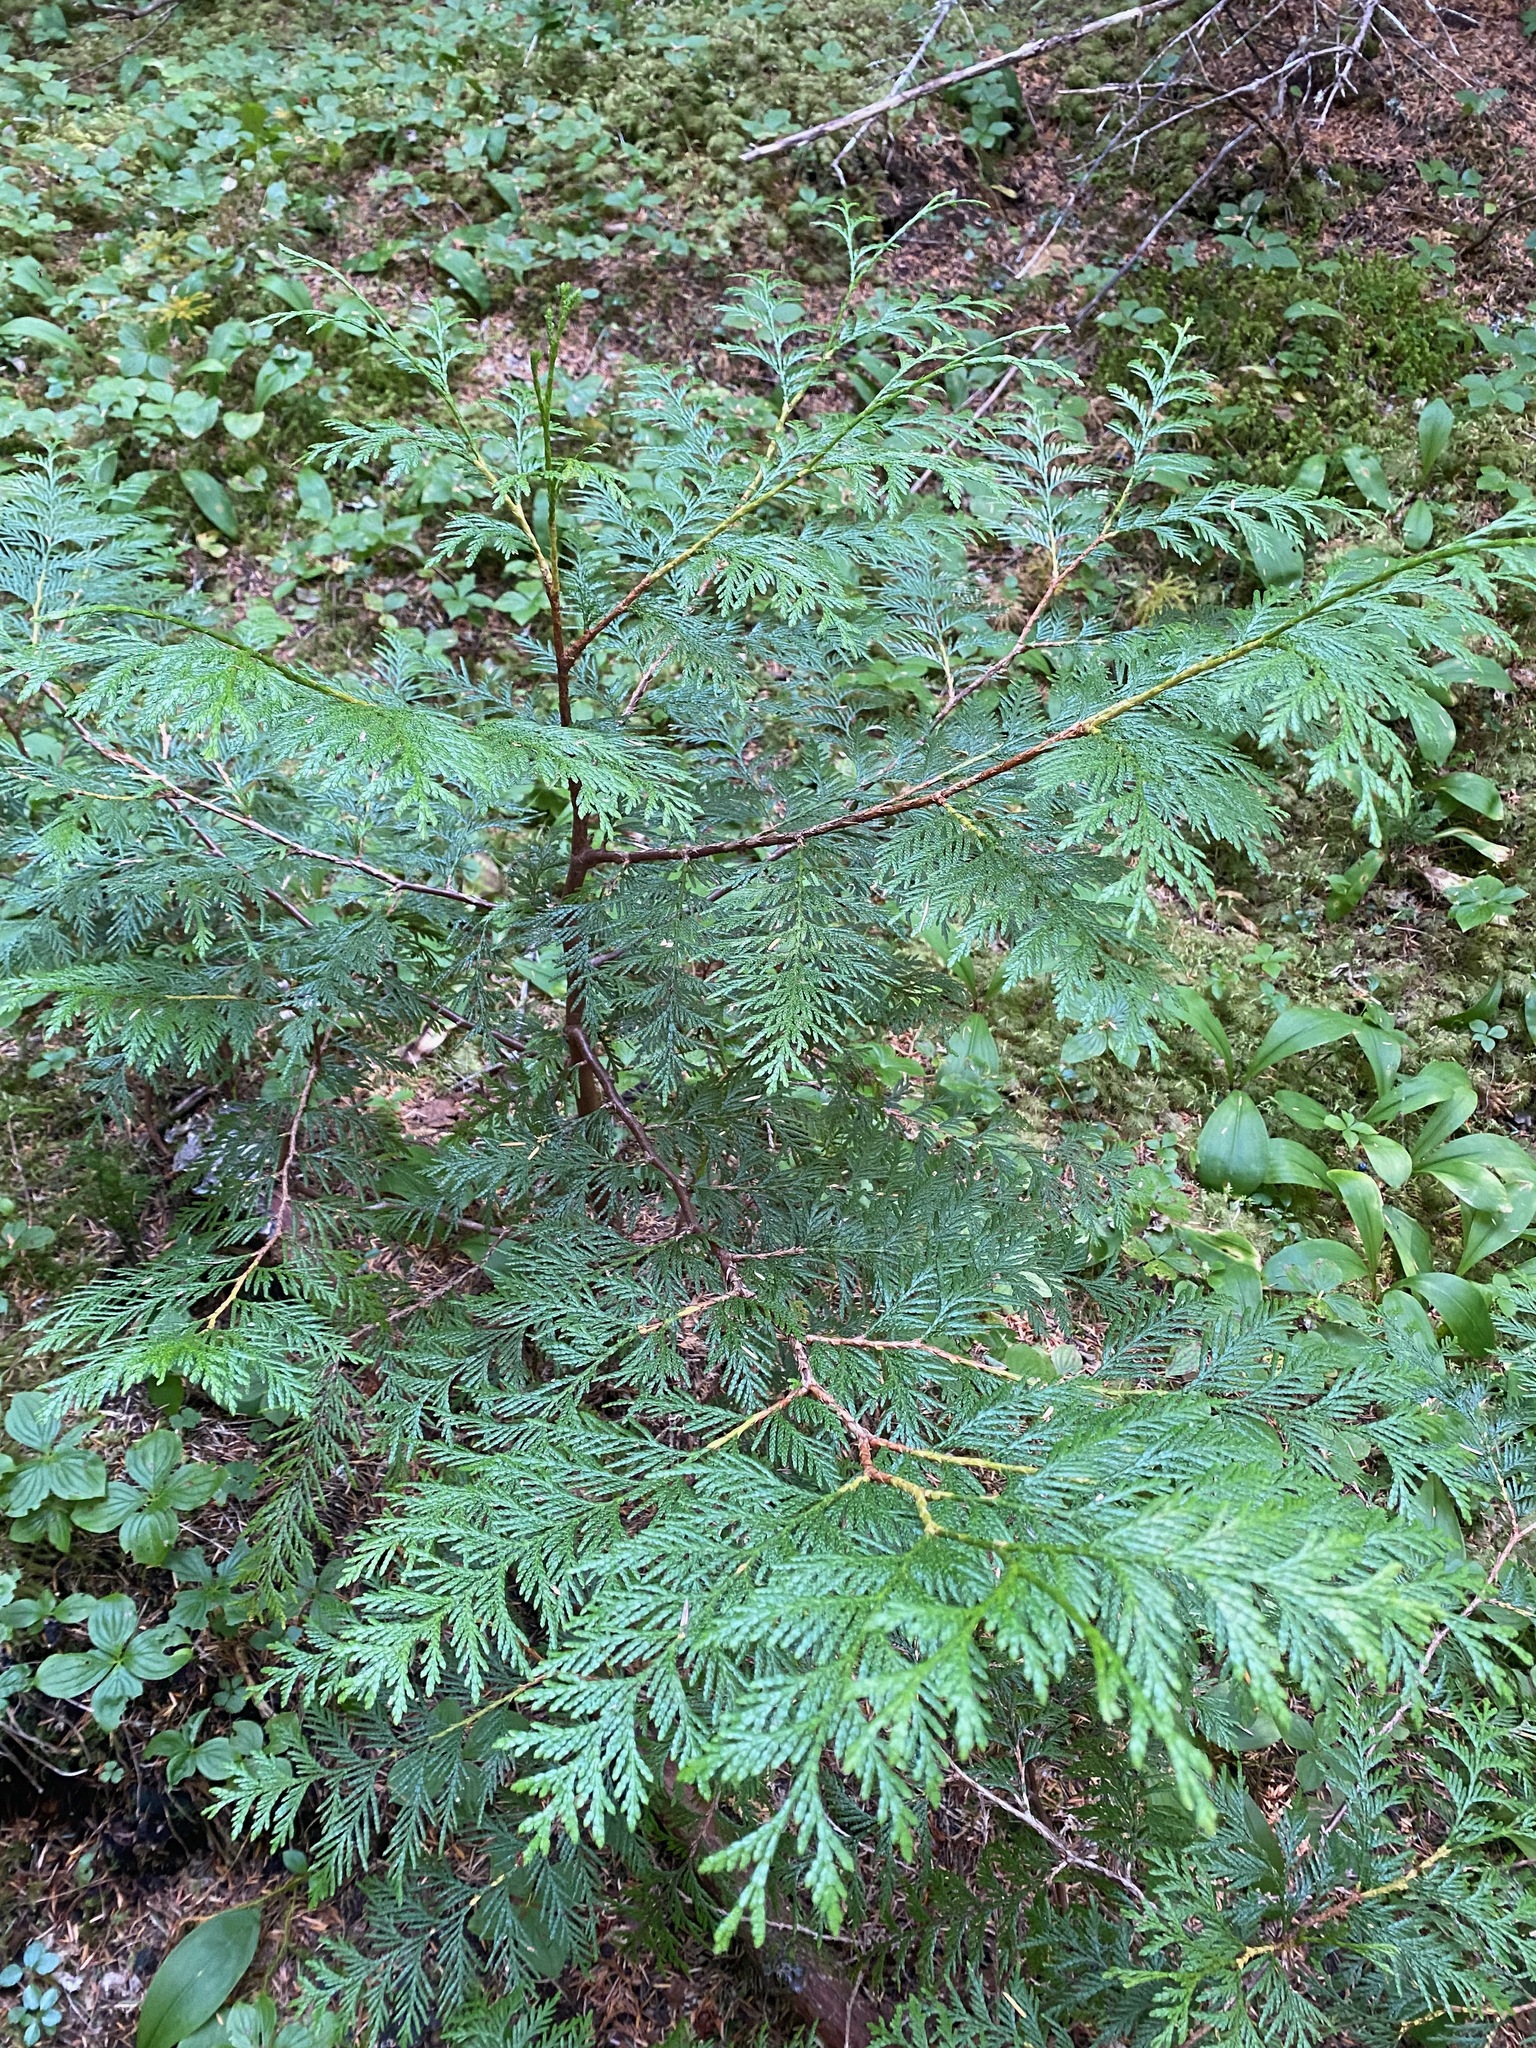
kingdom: Plantae
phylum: Tracheophyta
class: Pinopsida
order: Pinales
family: Cupressaceae
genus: Thuja
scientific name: Thuja plicata
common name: Western red-cedar
